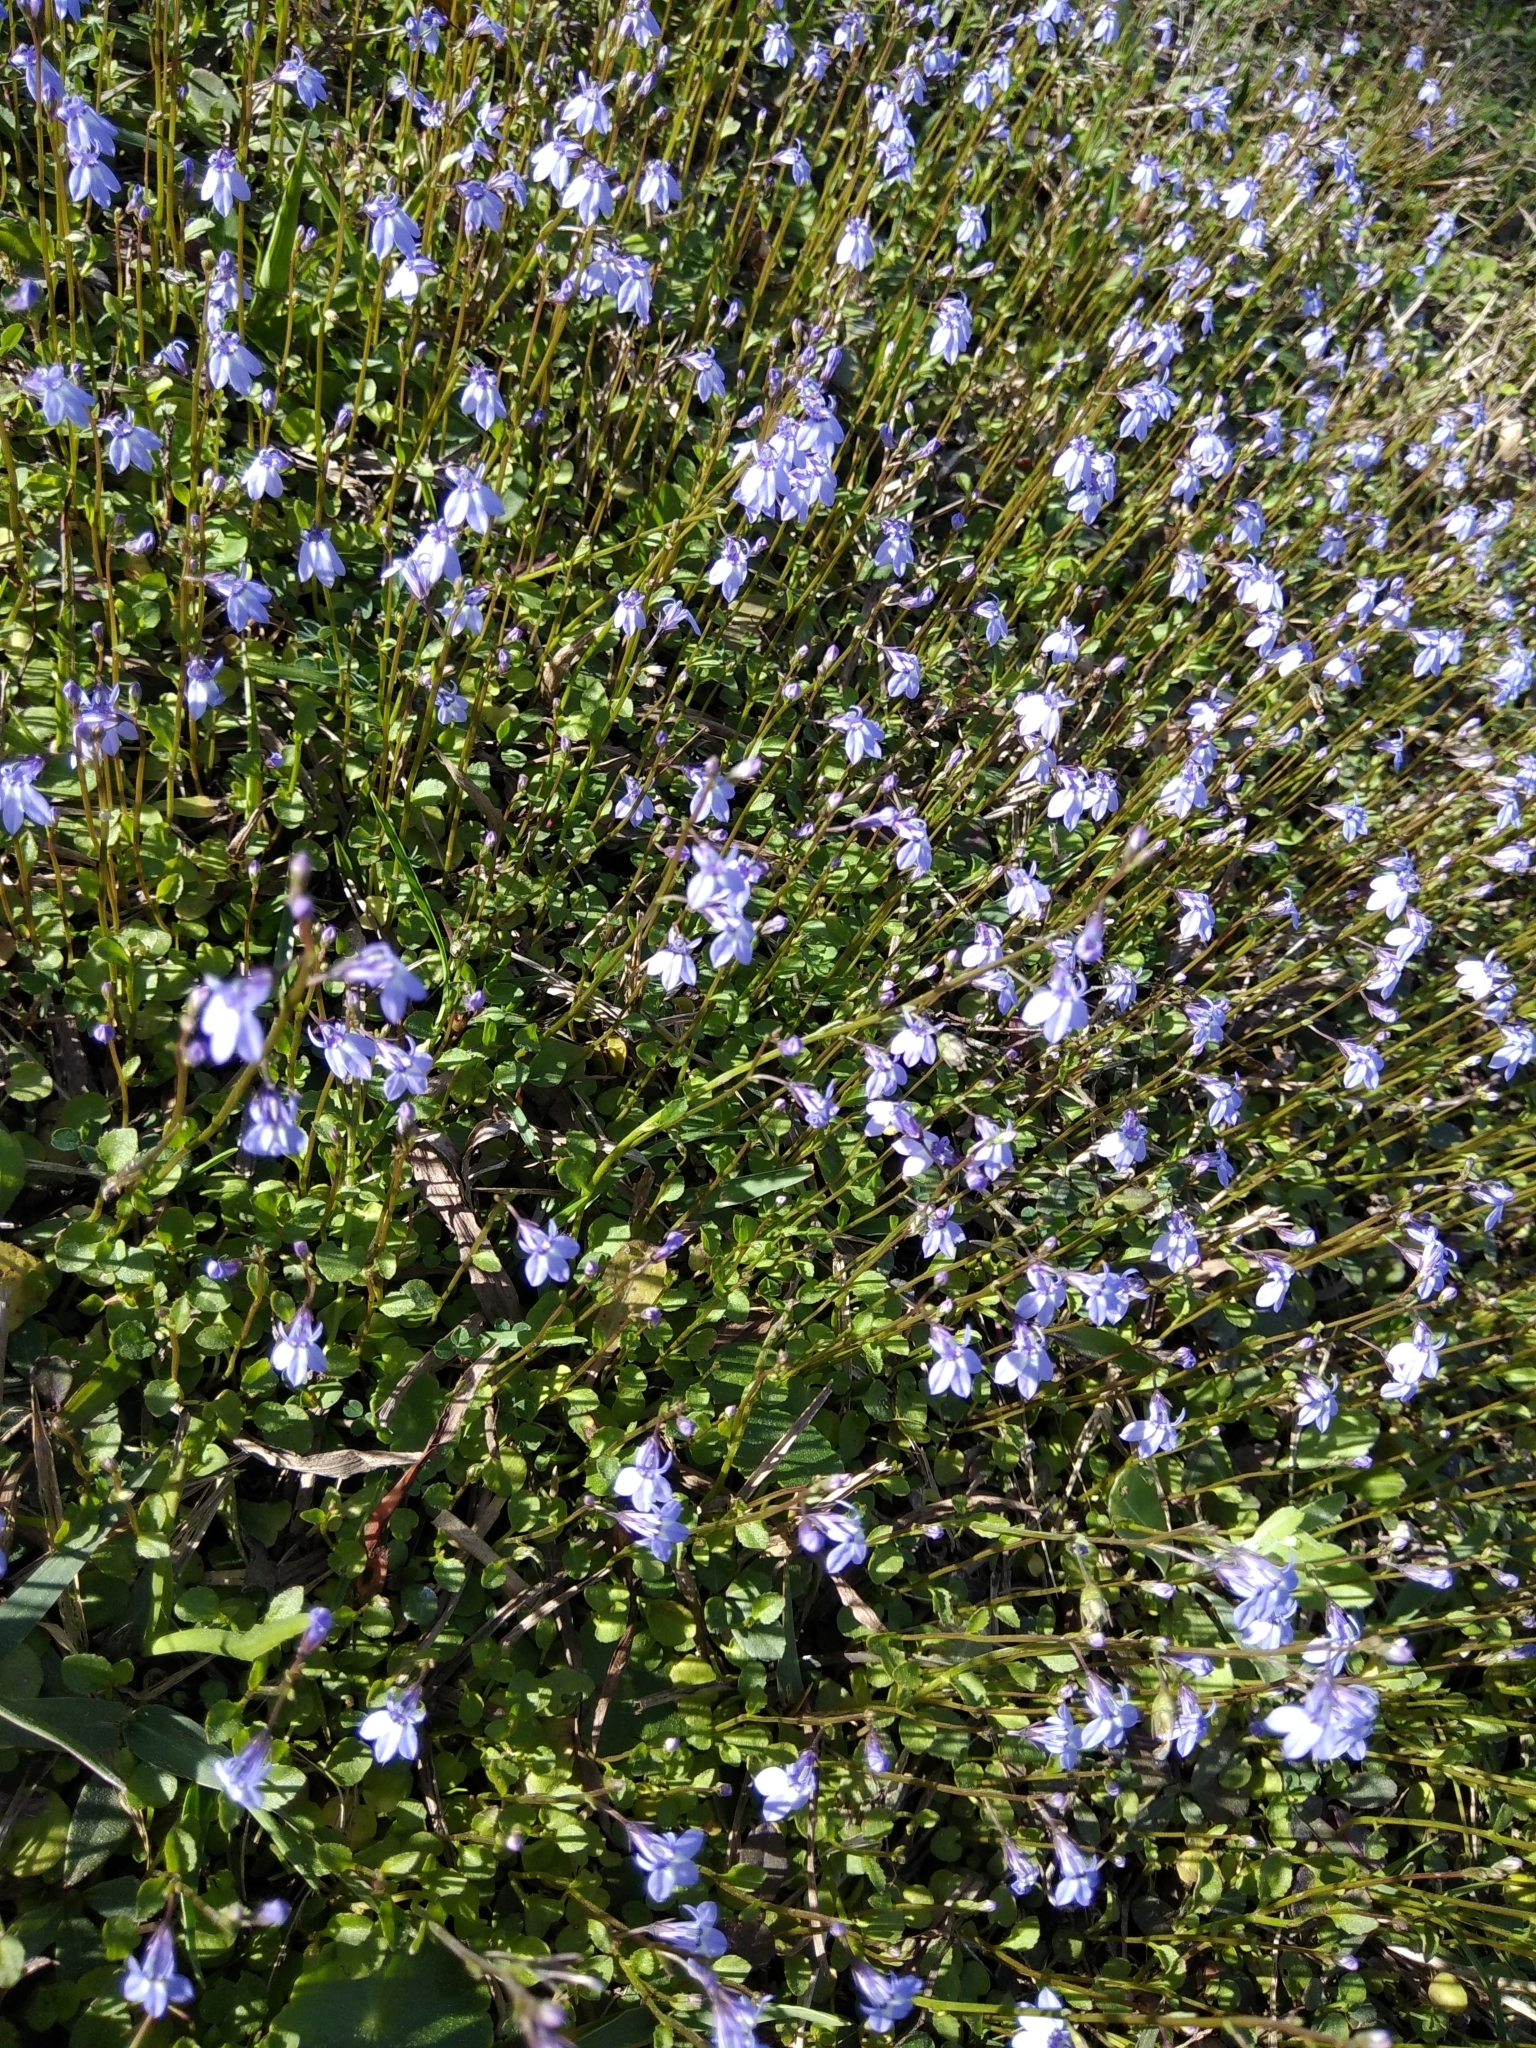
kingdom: Plantae
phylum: Tracheophyta
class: Magnoliopsida
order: Asterales
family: Campanulaceae
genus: Lobelia
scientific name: Lobelia feayana
